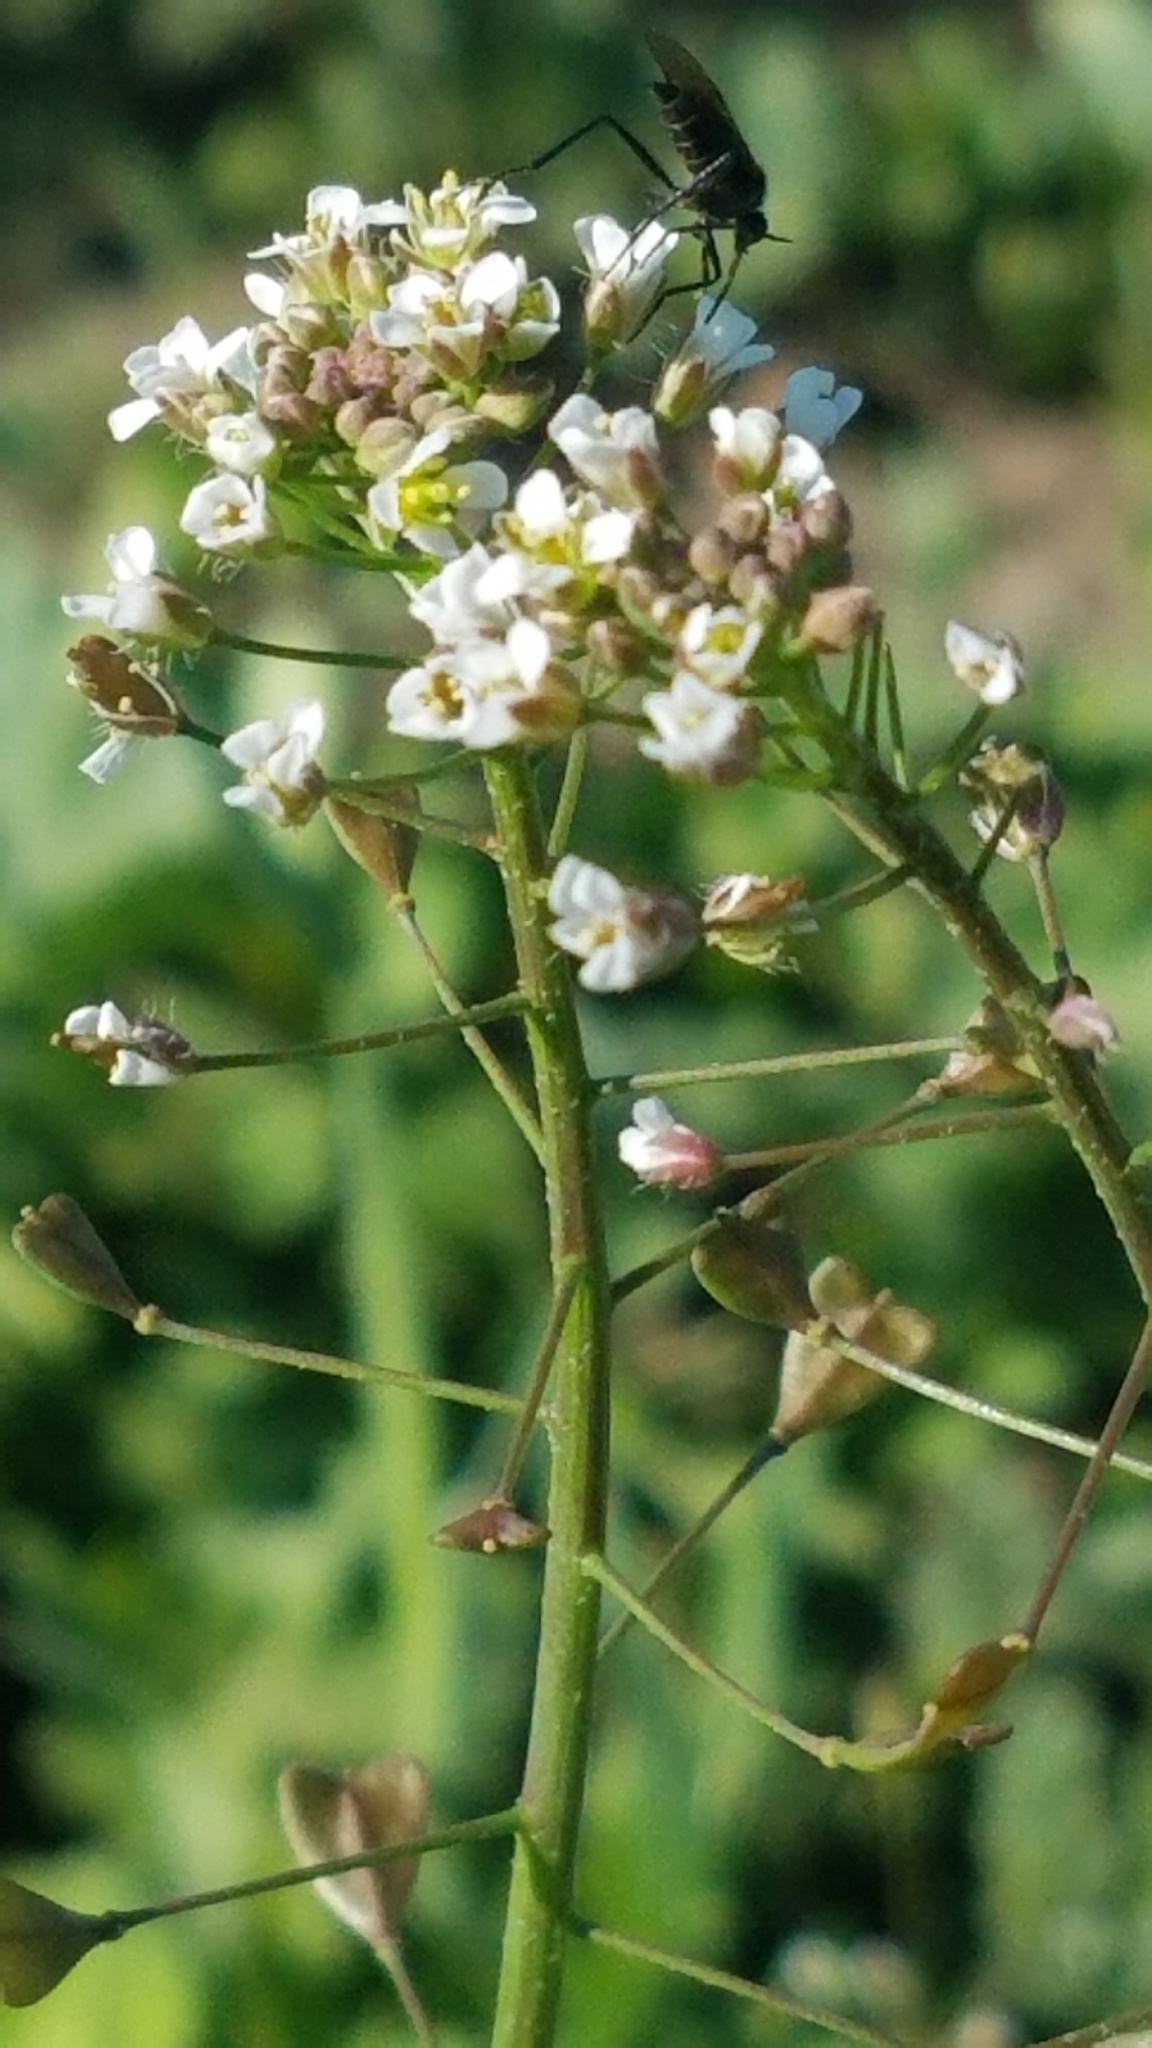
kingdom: Plantae
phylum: Tracheophyta
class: Magnoliopsida
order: Brassicales
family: Brassicaceae
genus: Capsella
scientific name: Capsella bursa-pastoris
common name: Shepherd's purse
